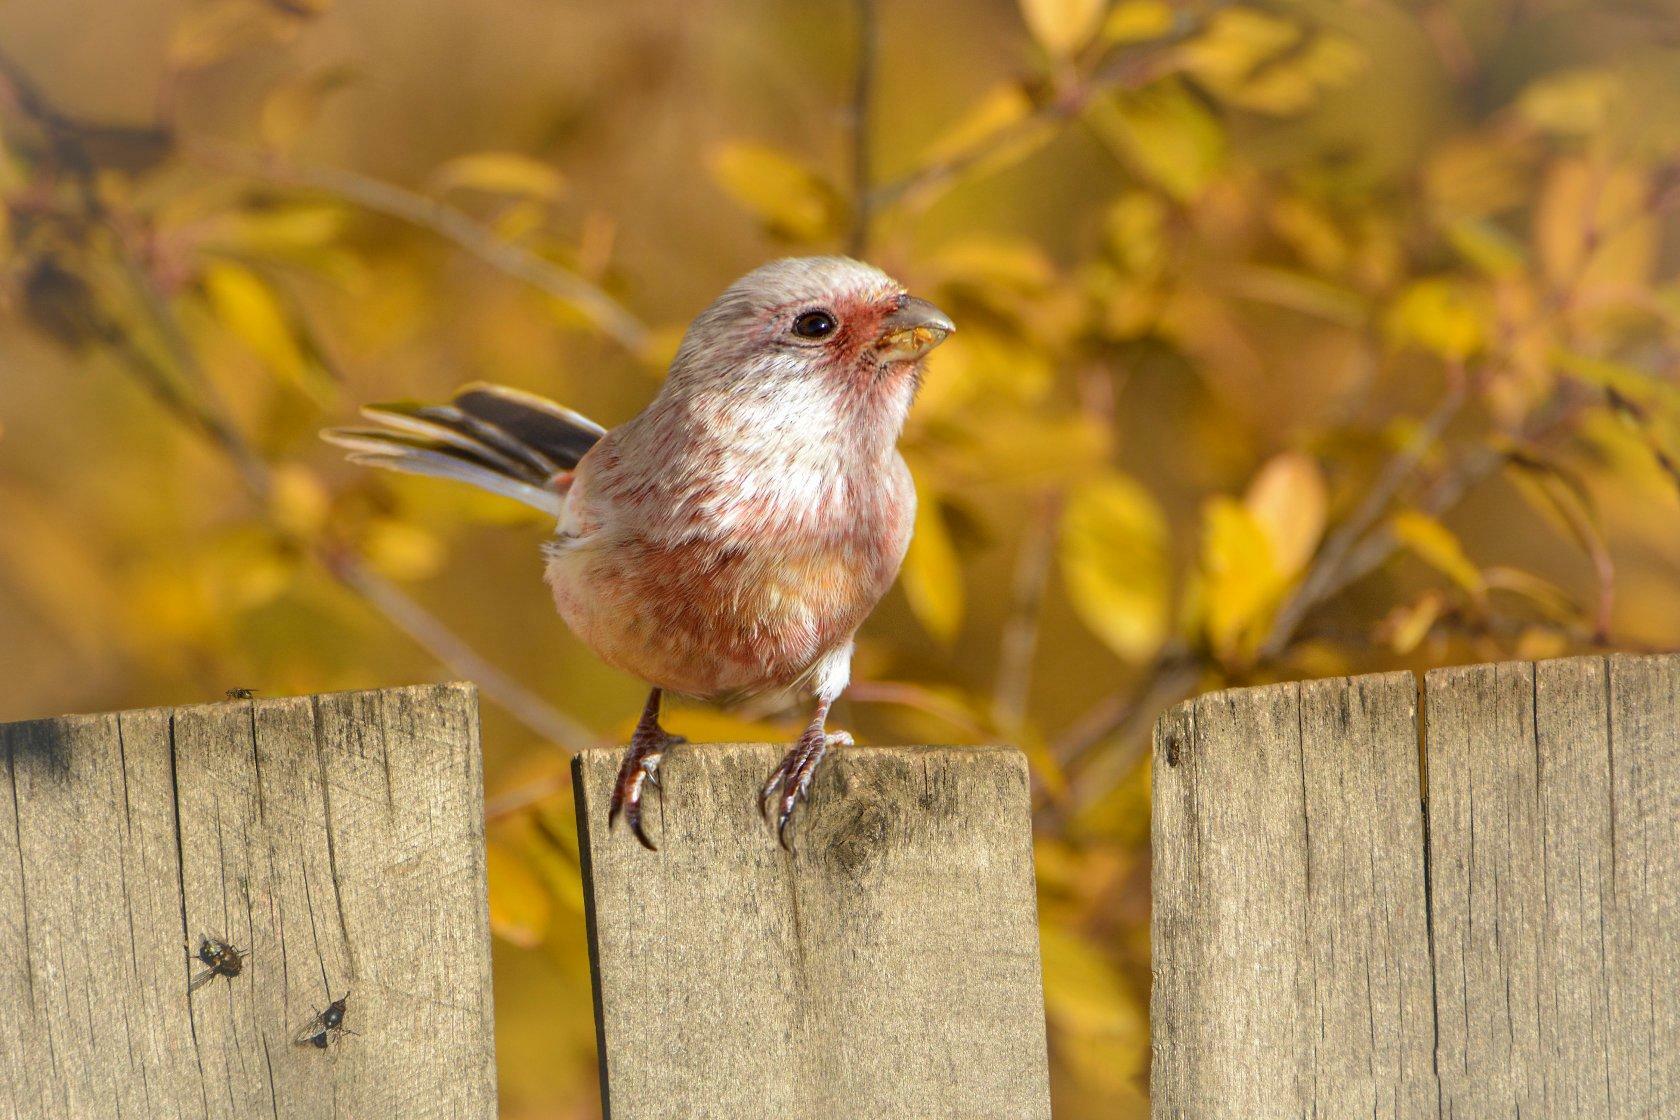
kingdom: Animalia
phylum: Chordata
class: Aves
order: Passeriformes
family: Fringillidae
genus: Carpodacus
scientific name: Carpodacus sibiricus
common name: Long-tailed rosefinch
